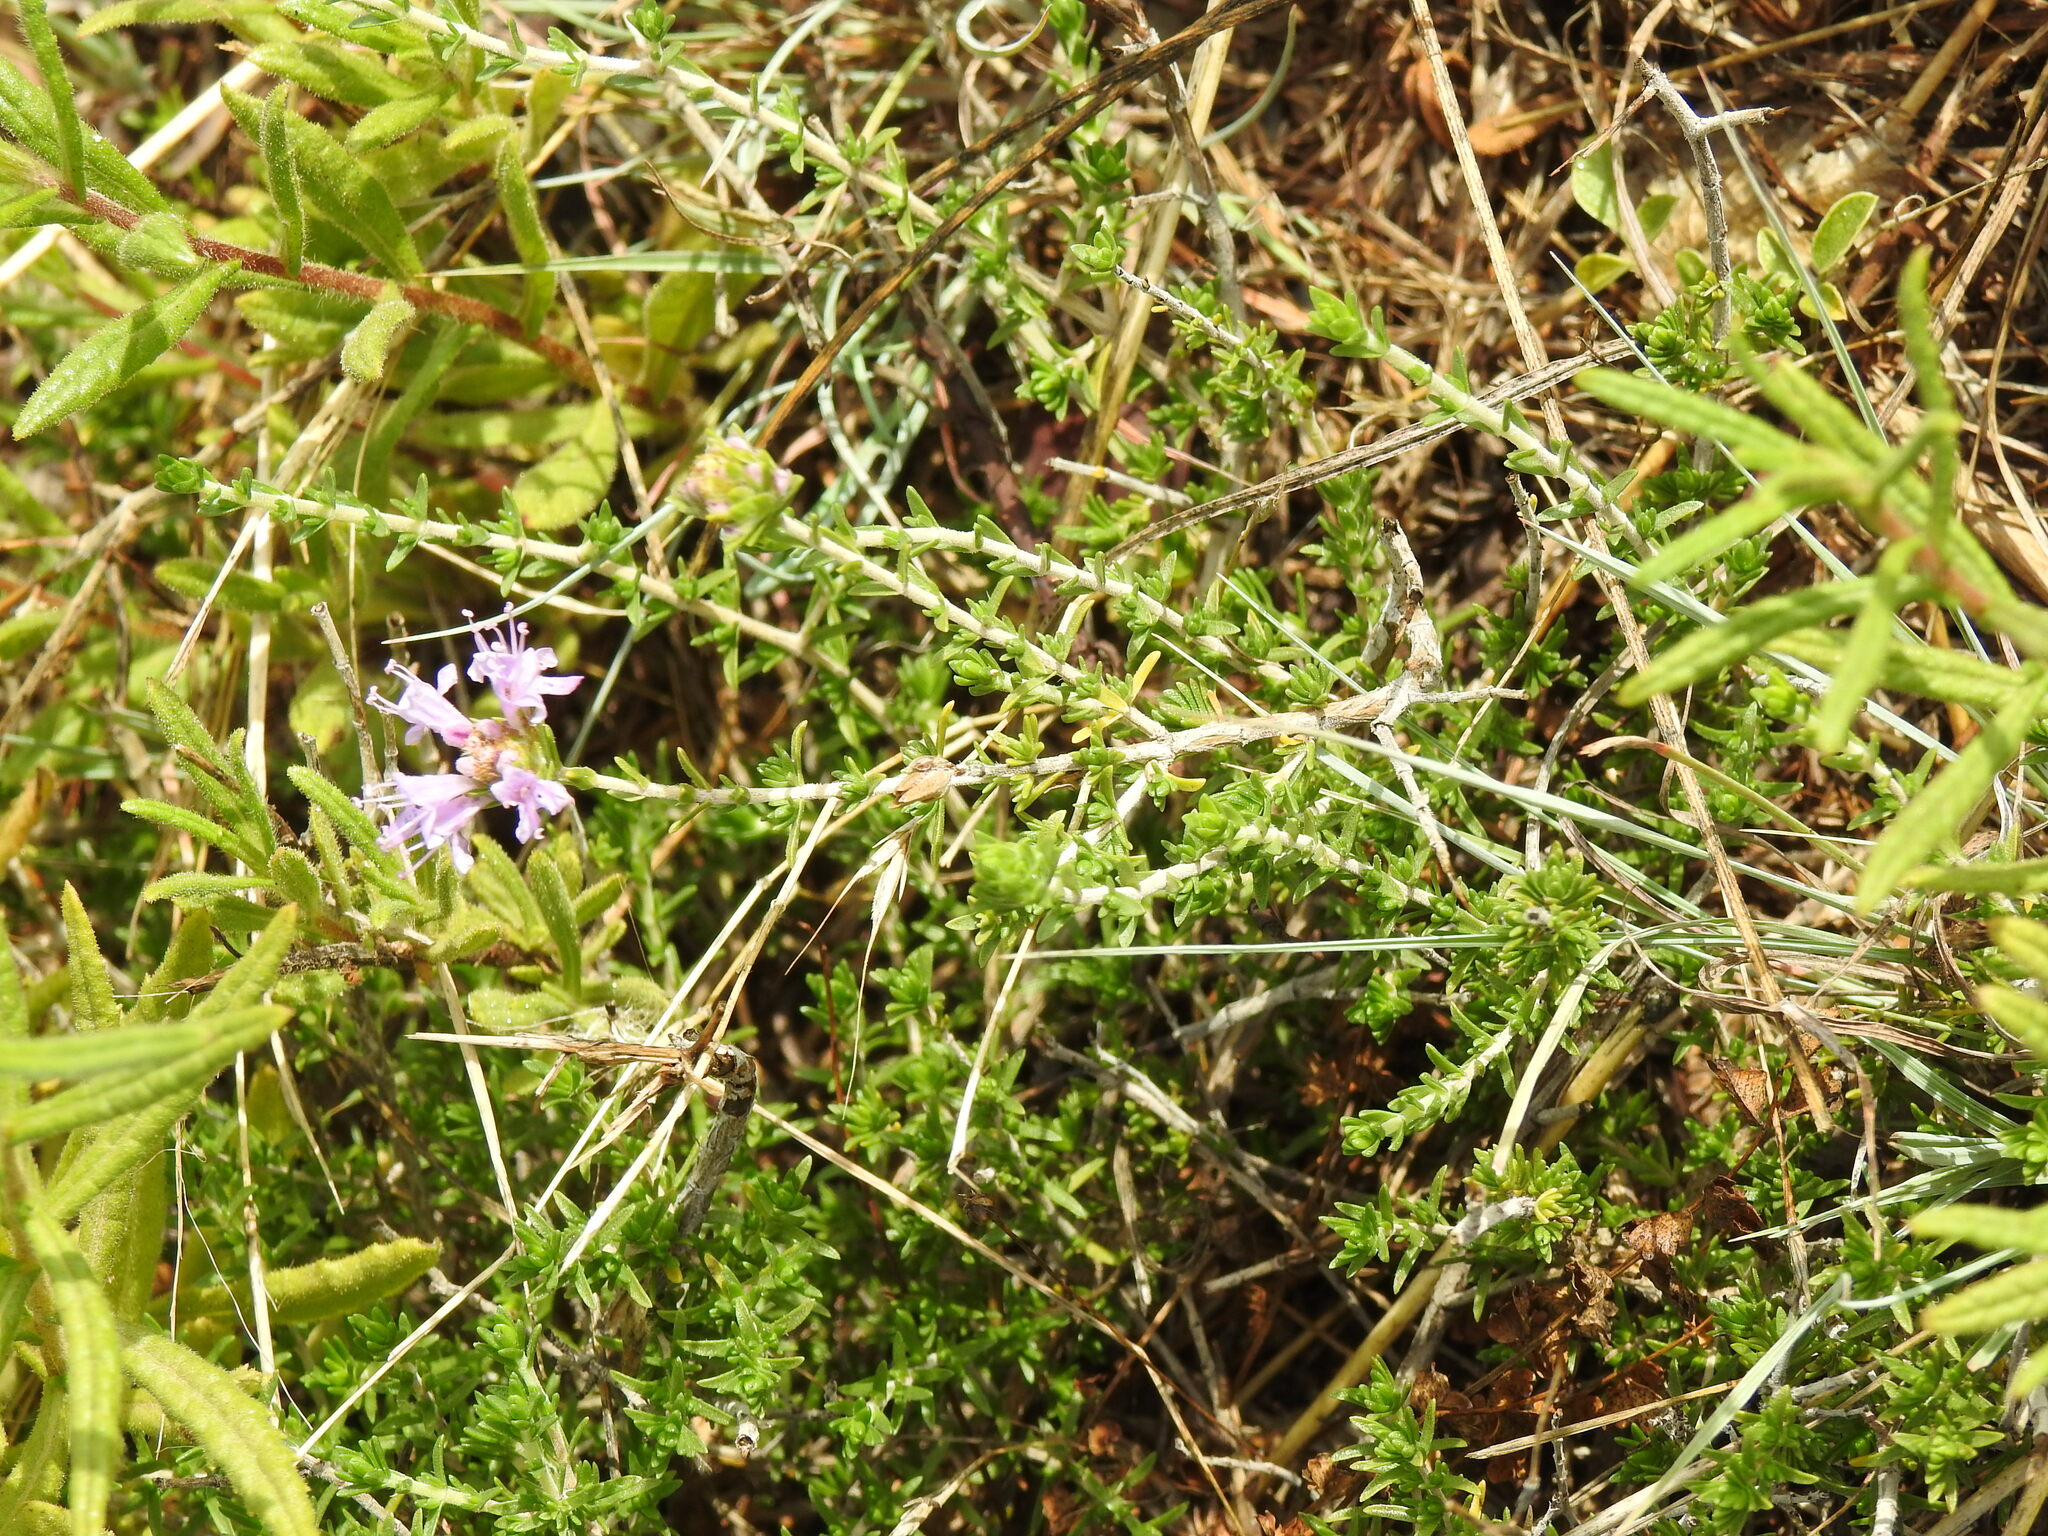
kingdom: Plantae
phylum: Tracheophyta
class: Magnoliopsida
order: Lamiales
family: Lamiaceae
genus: Thymbra
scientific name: Thymbra capitata
